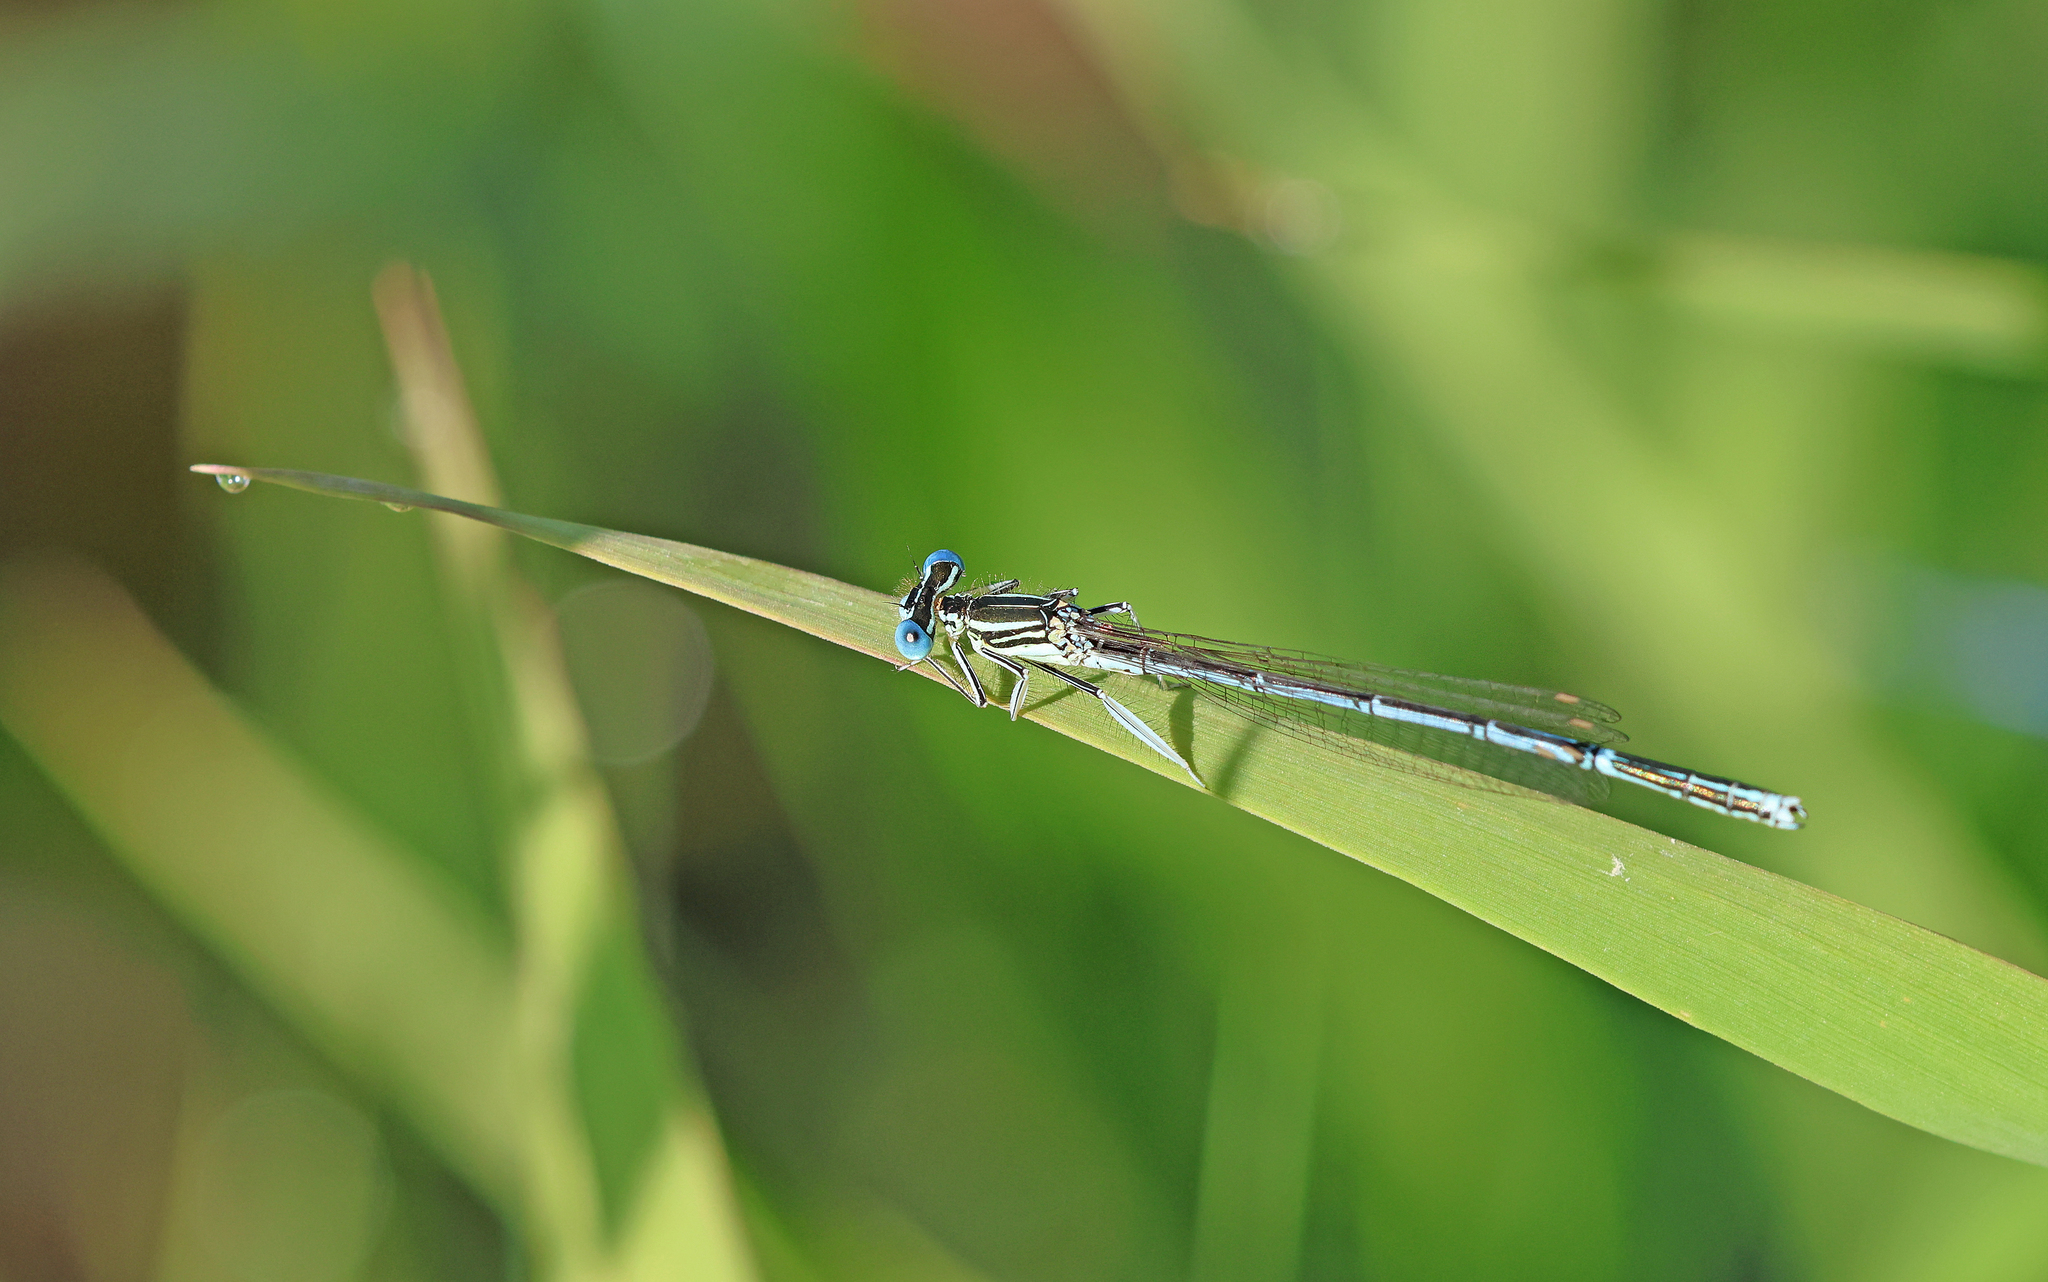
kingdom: Animalia
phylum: Arthropoda
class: Insecta
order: Odonata
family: Platycnemididae
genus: Platycnemis
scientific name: Platycnemis pennipes
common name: White-legged damselfly
